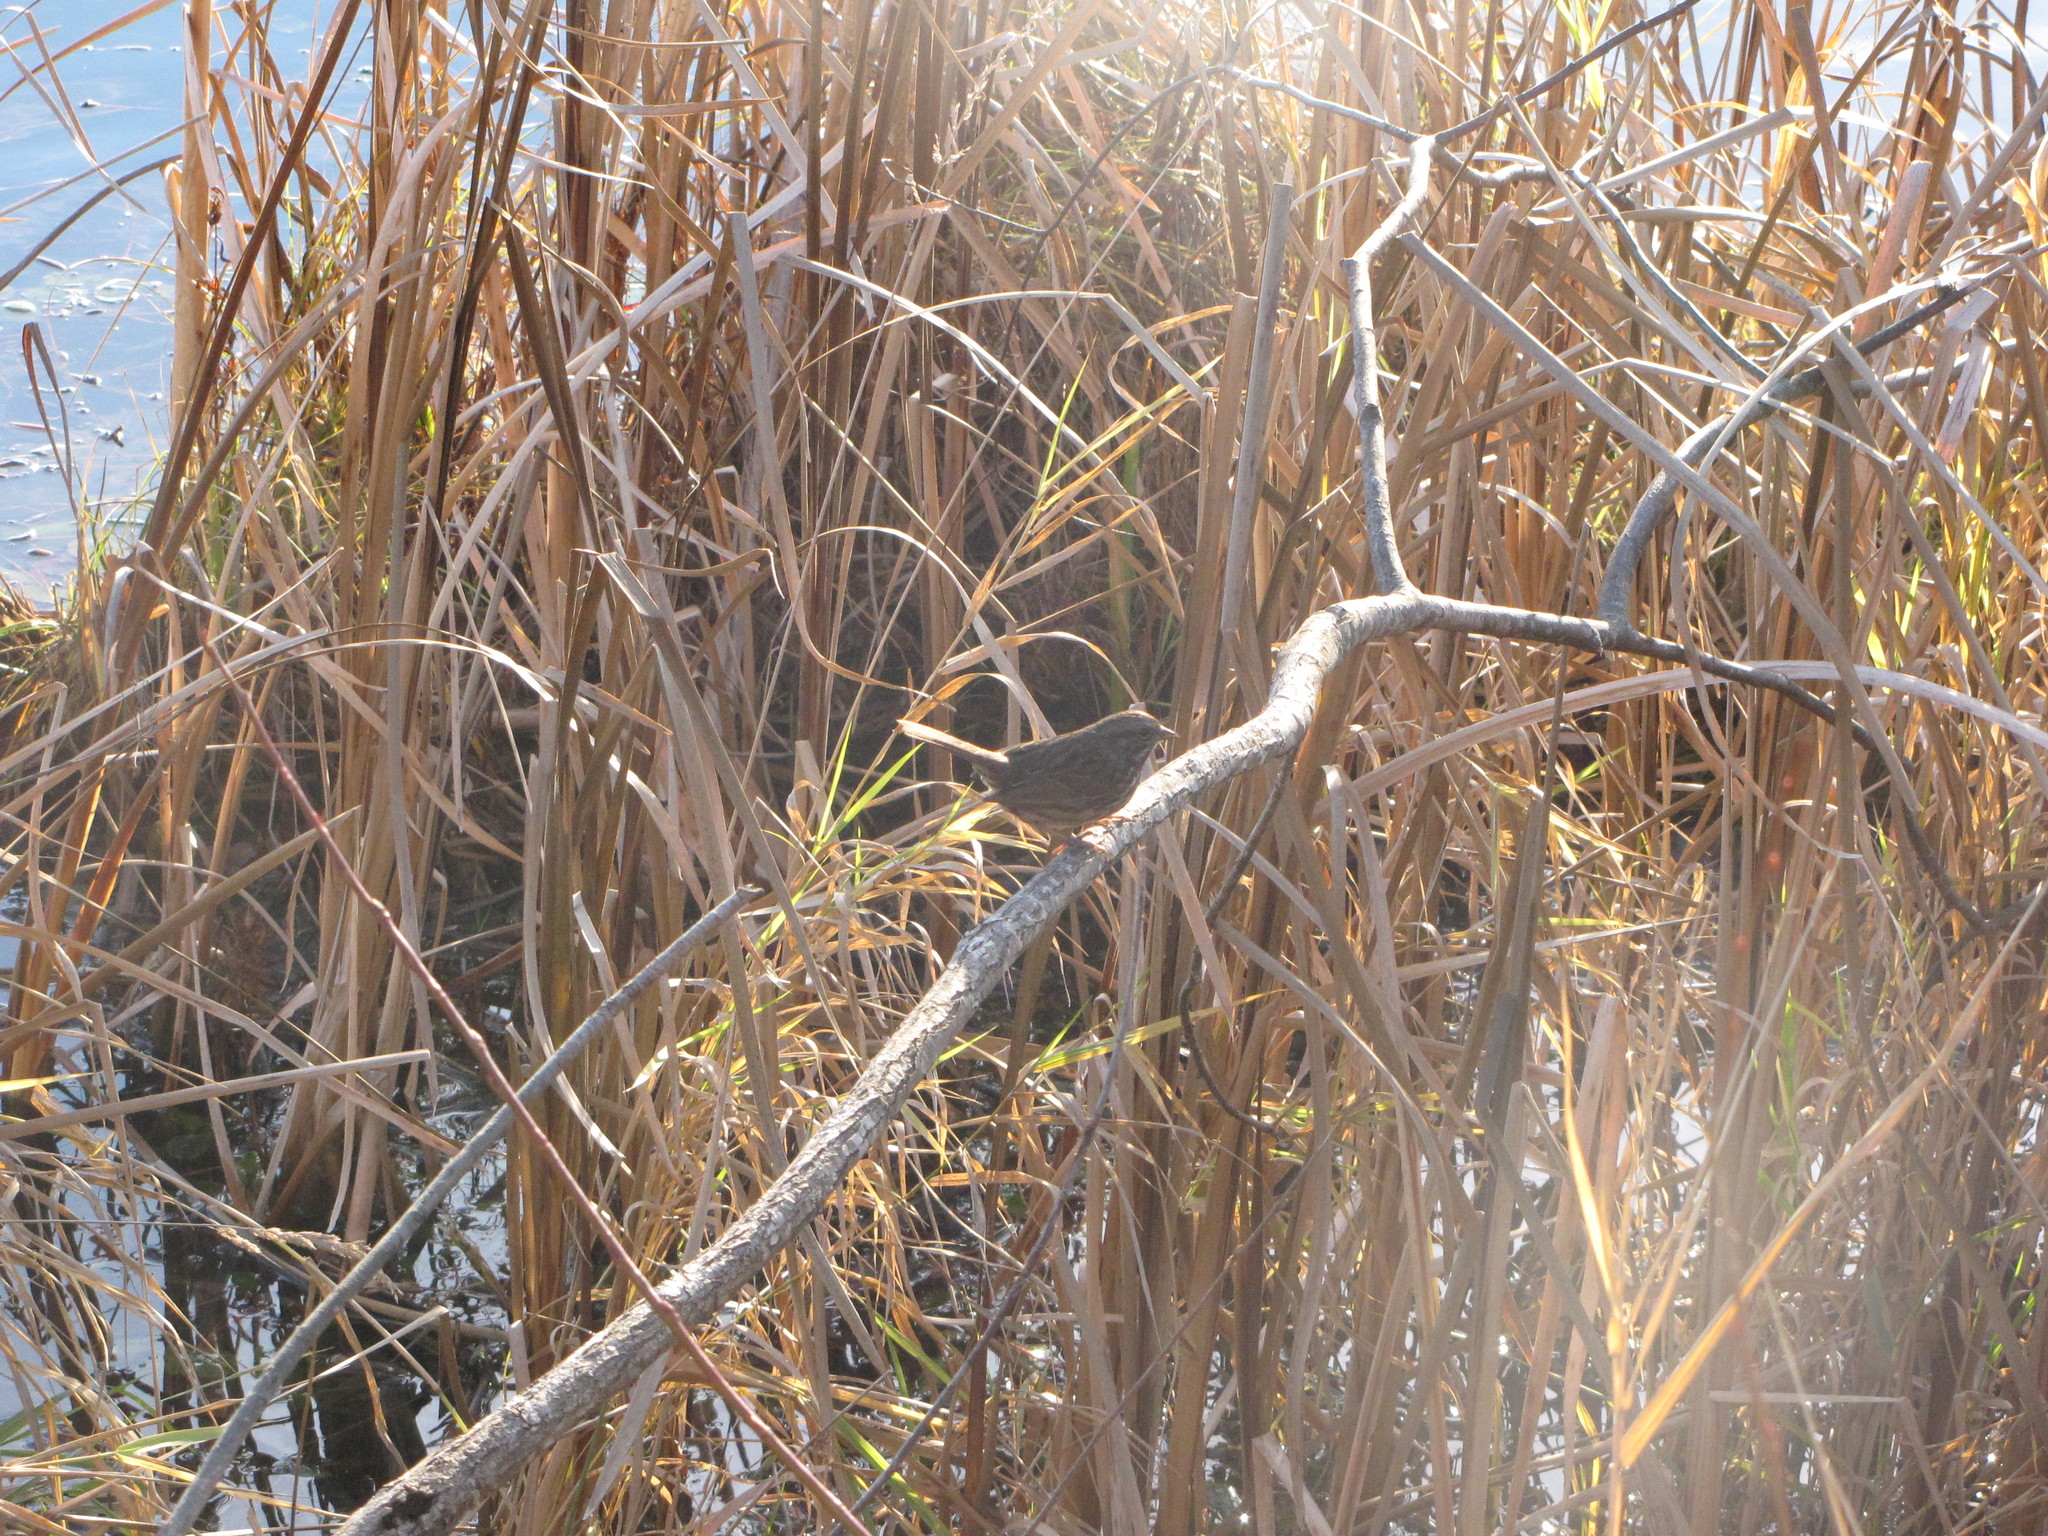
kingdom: Animalia
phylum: Chordata
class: Aves
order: Passeriformes
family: Passerellidae
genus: Melospiza
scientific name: Melospiza melodia
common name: Song sparrow
